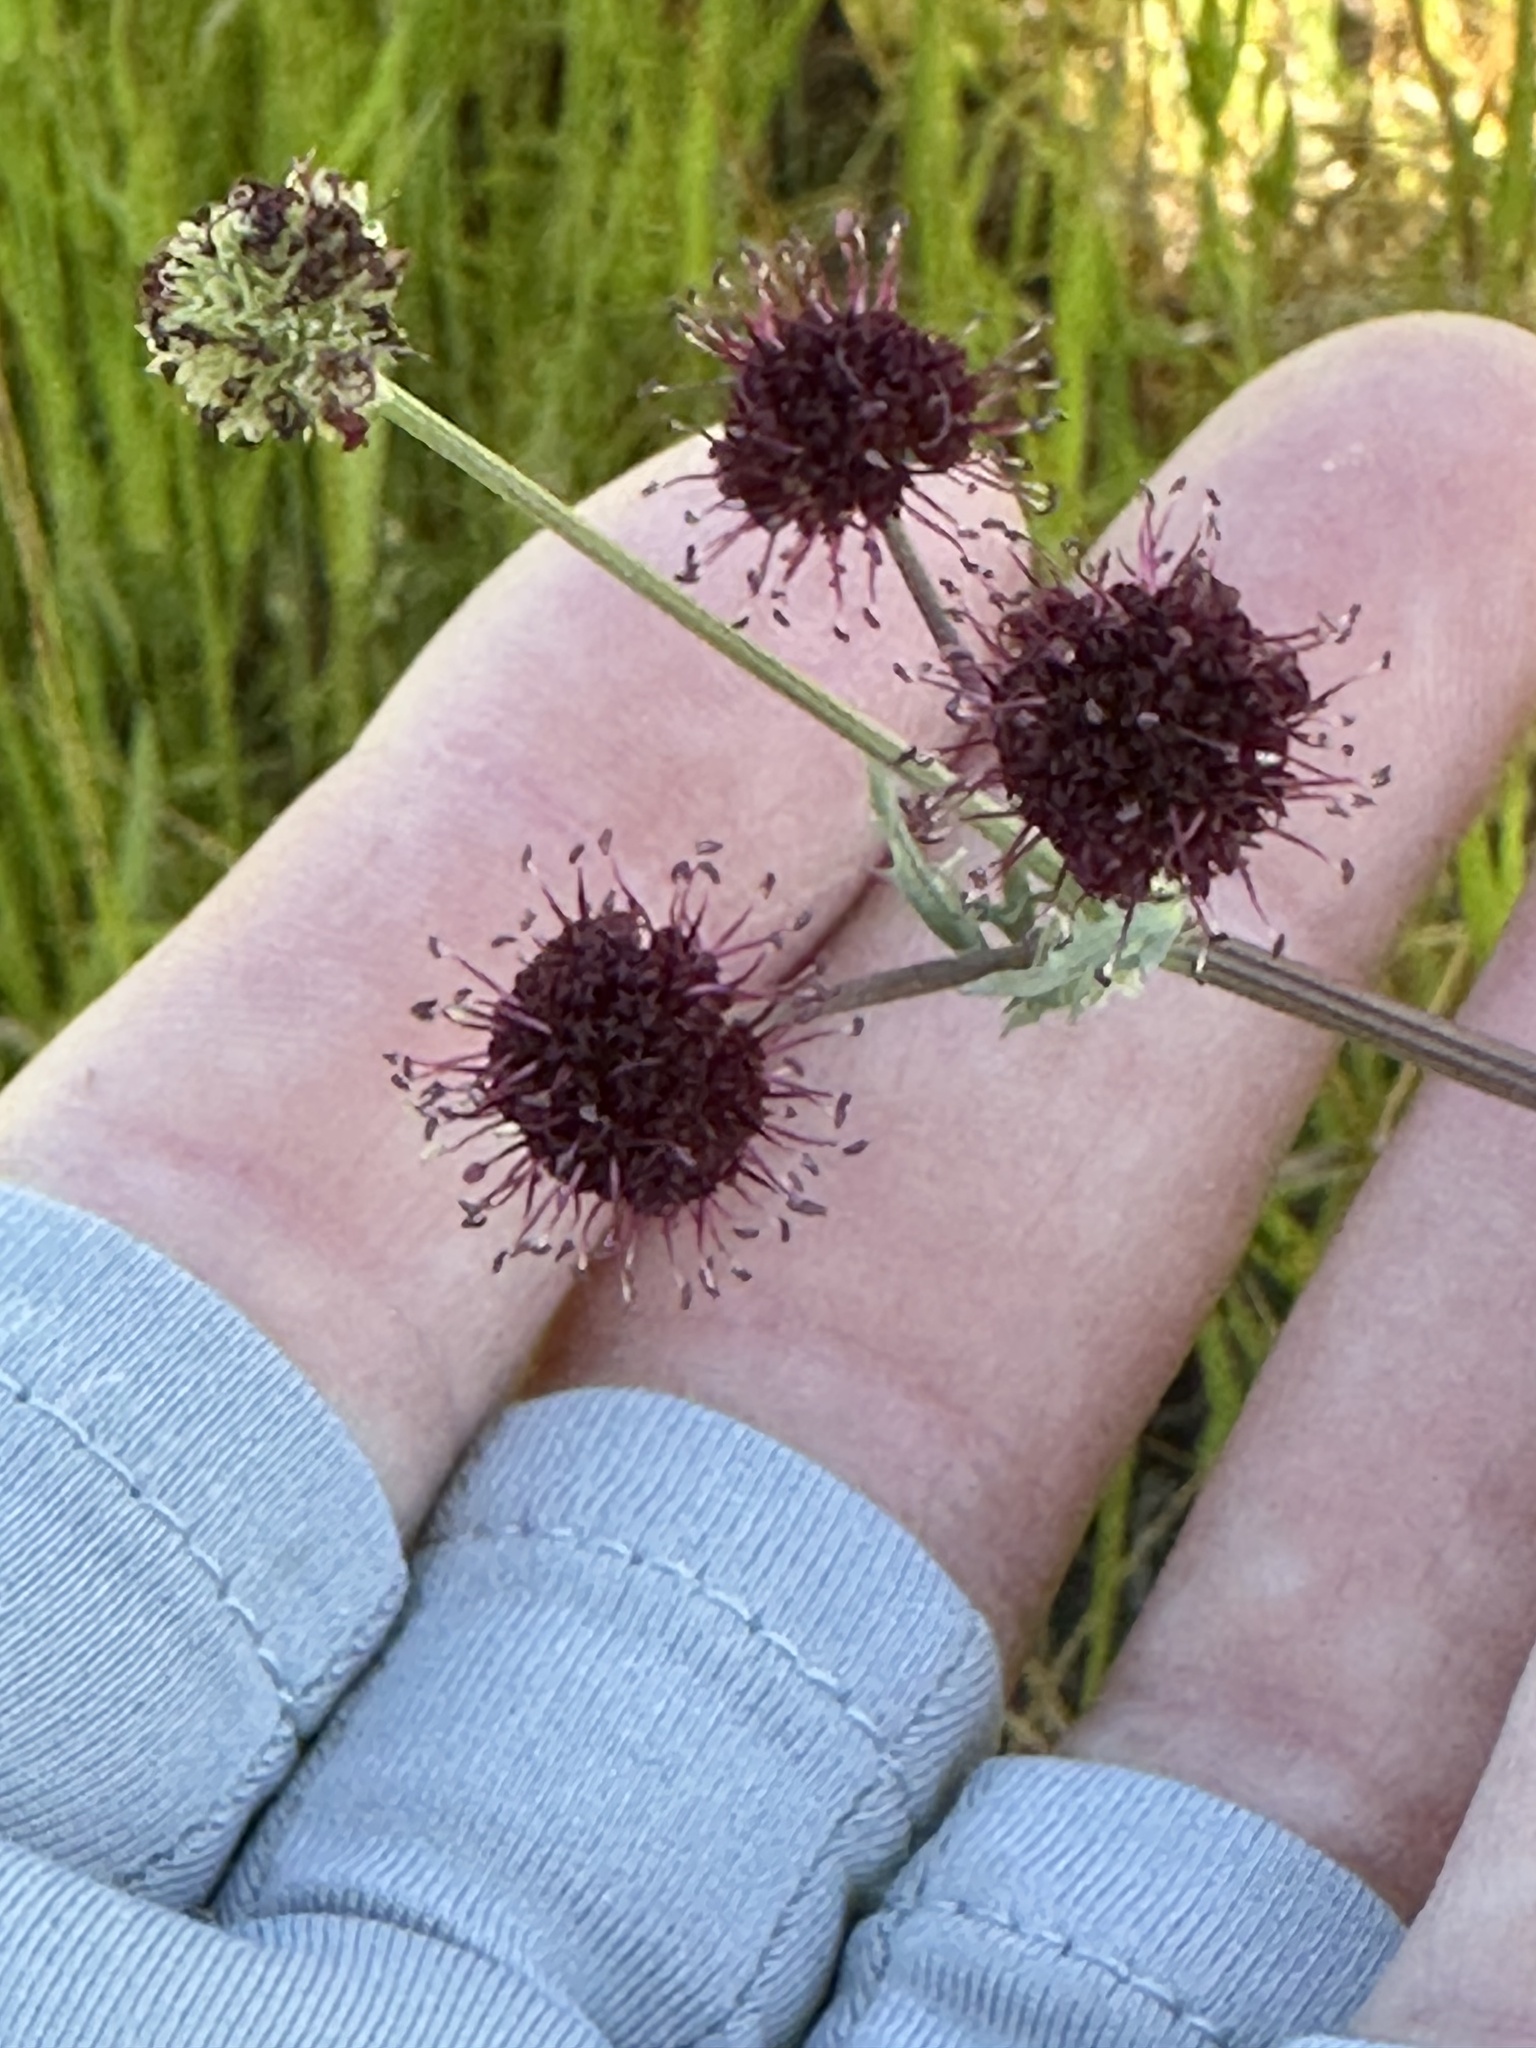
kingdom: Plantae
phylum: Tracheophyta
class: Magnoliopsida
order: Apiales
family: Apiaceae
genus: Sanicula
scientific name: Sanicula bipinnatifida
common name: Shoe-buttons
